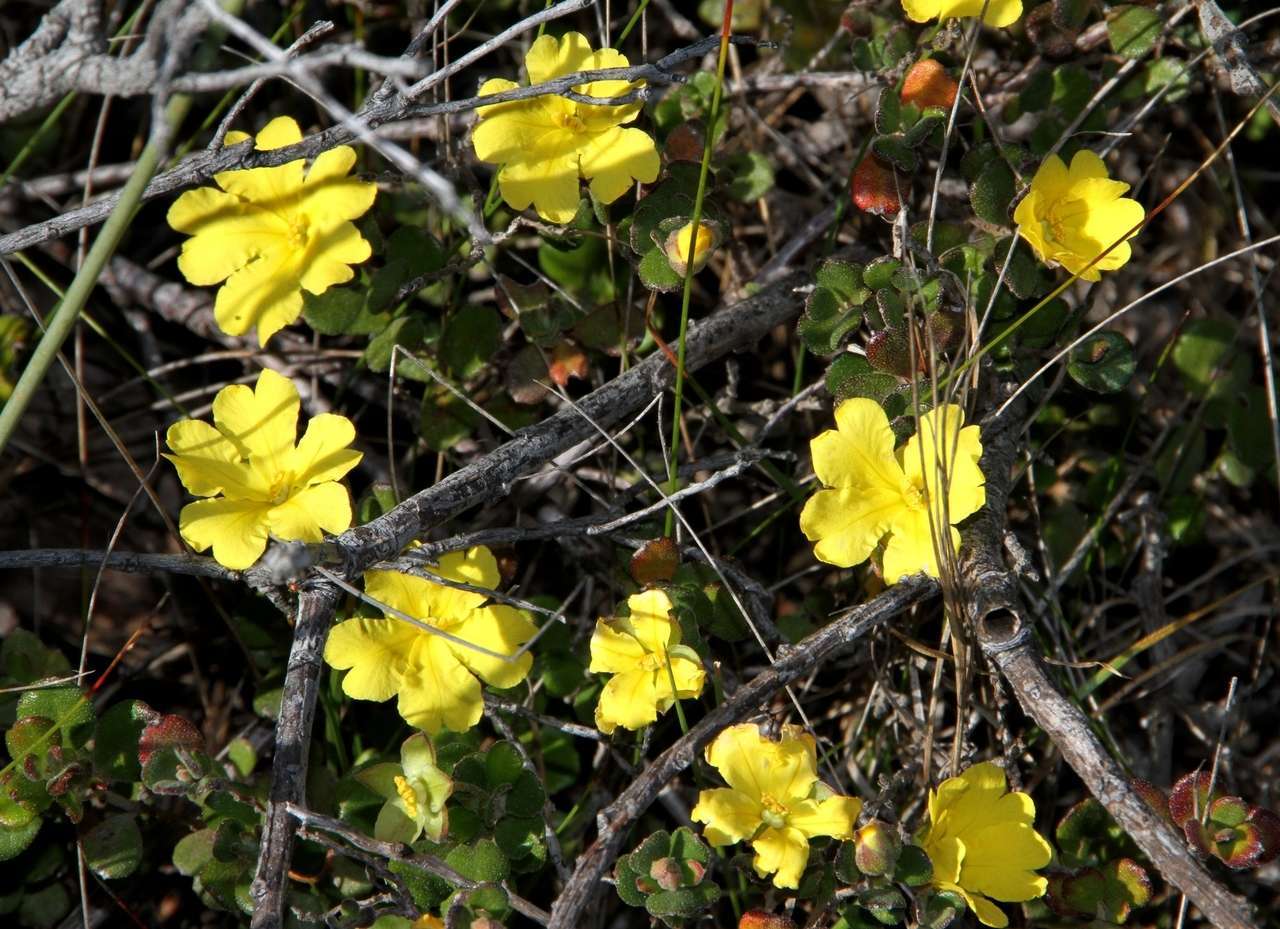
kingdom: Plantae
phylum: Tracheophyta
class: Magnoliopsida
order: Dilleniales
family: Dilleniaceae
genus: Hibbertia
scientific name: Hibbertia truncata
